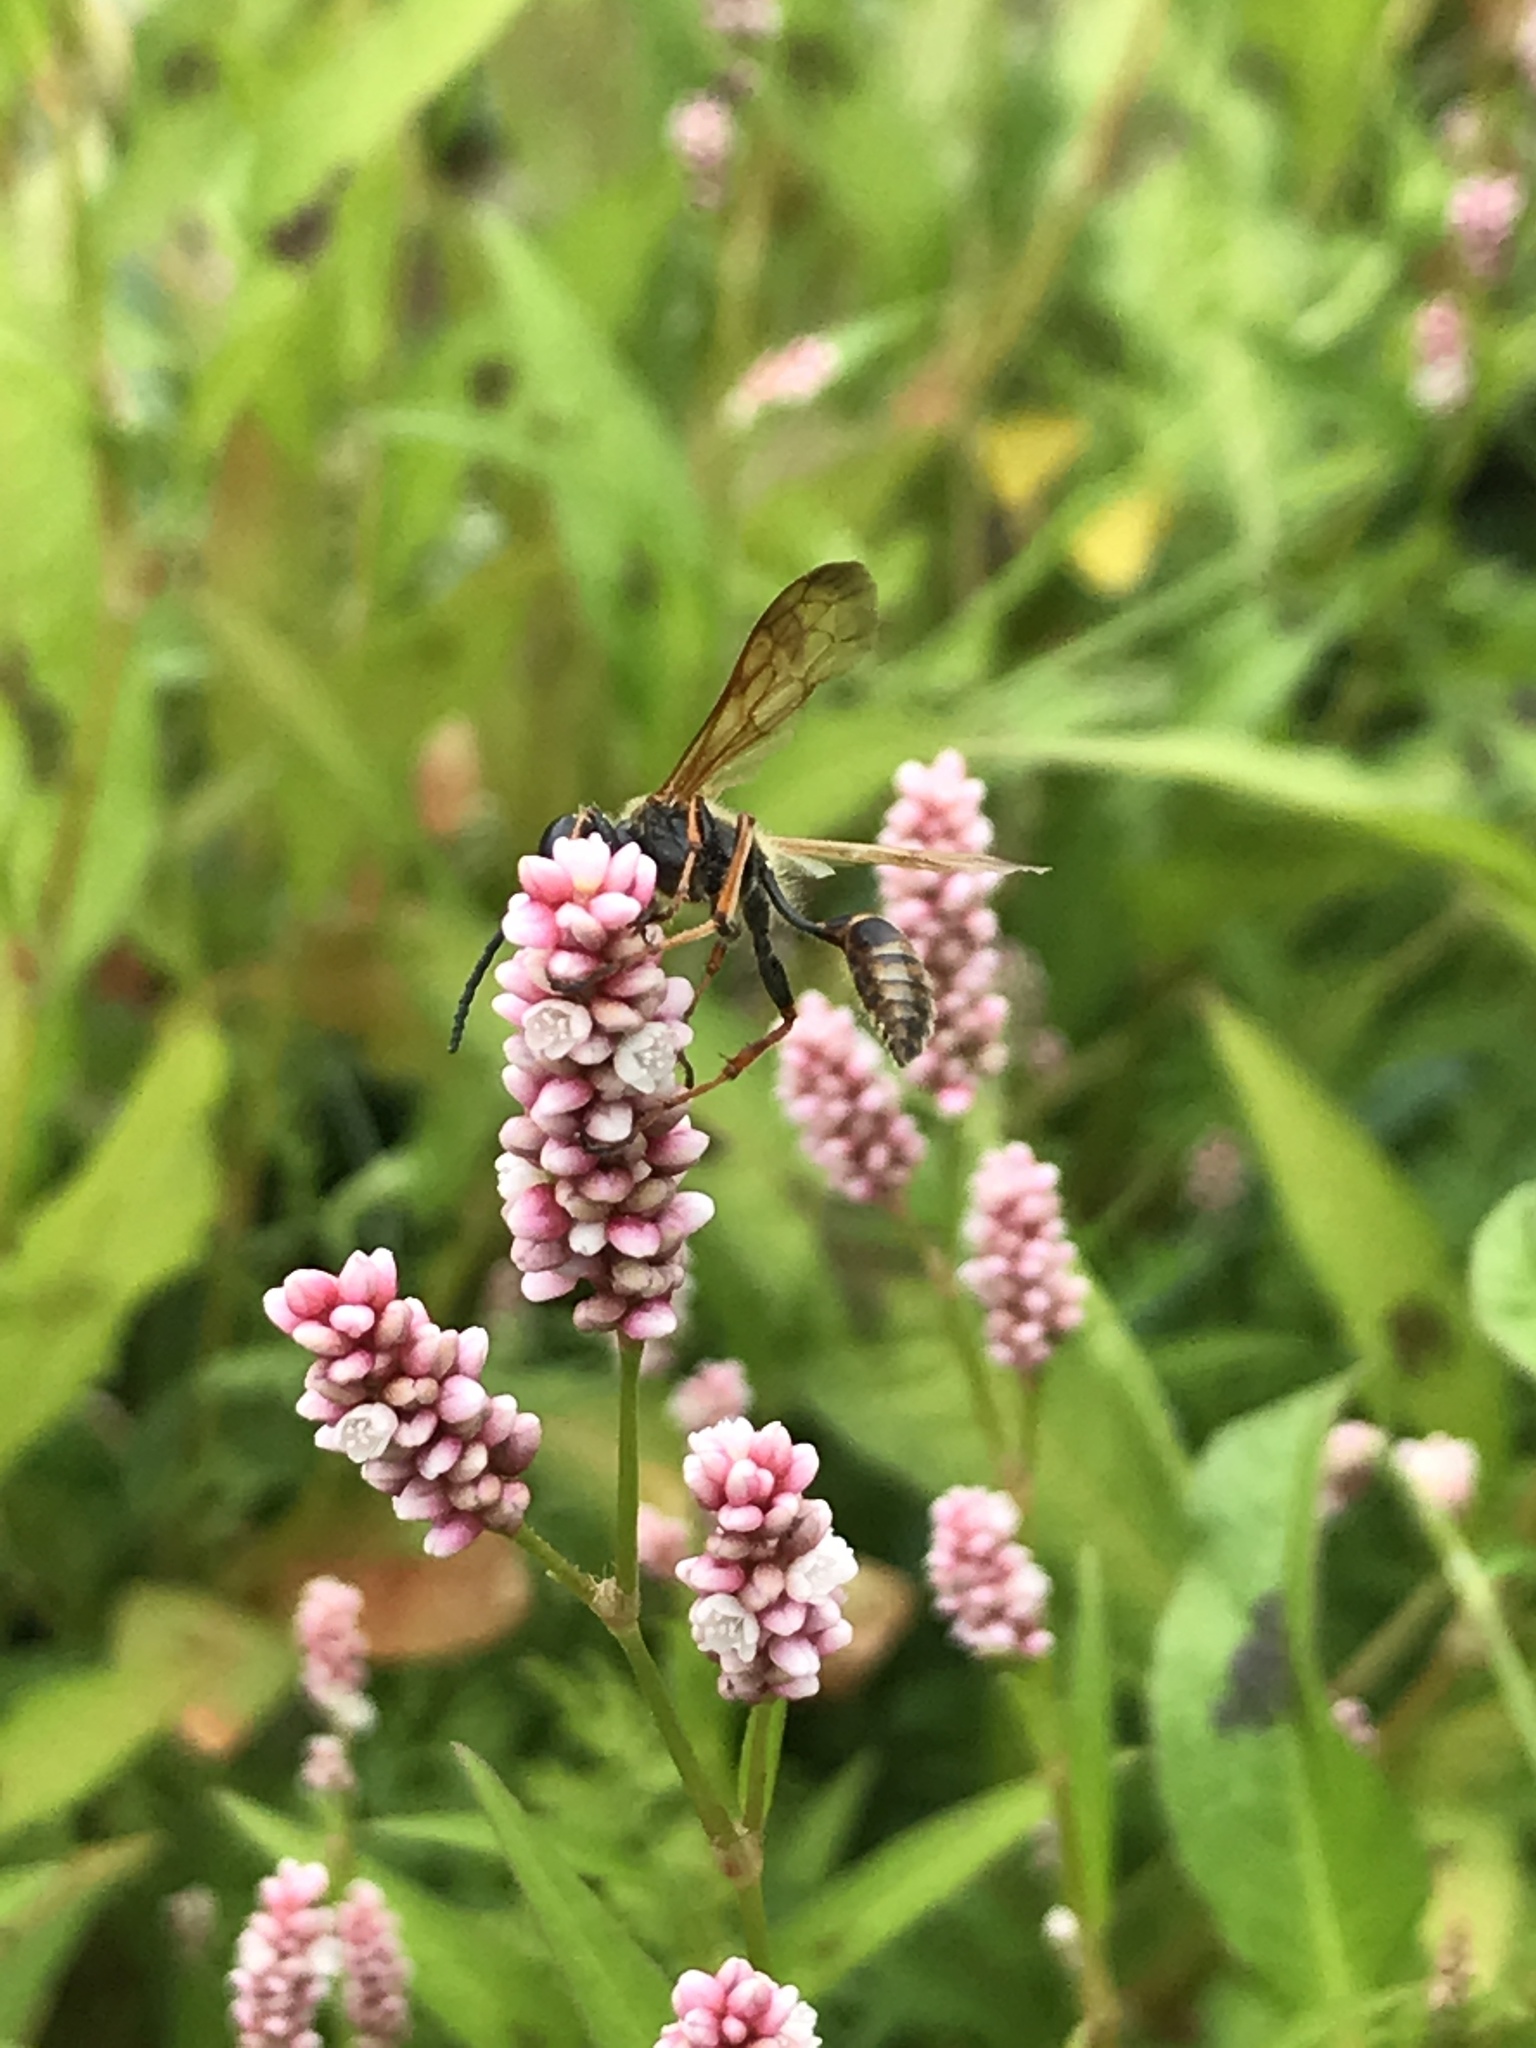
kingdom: Plantae
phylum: Tracheophyta
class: Magnoliopsida
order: Caryophyllales
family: Polygonaceae
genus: Persicaria
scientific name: Persicaria maculosa
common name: Redshank
